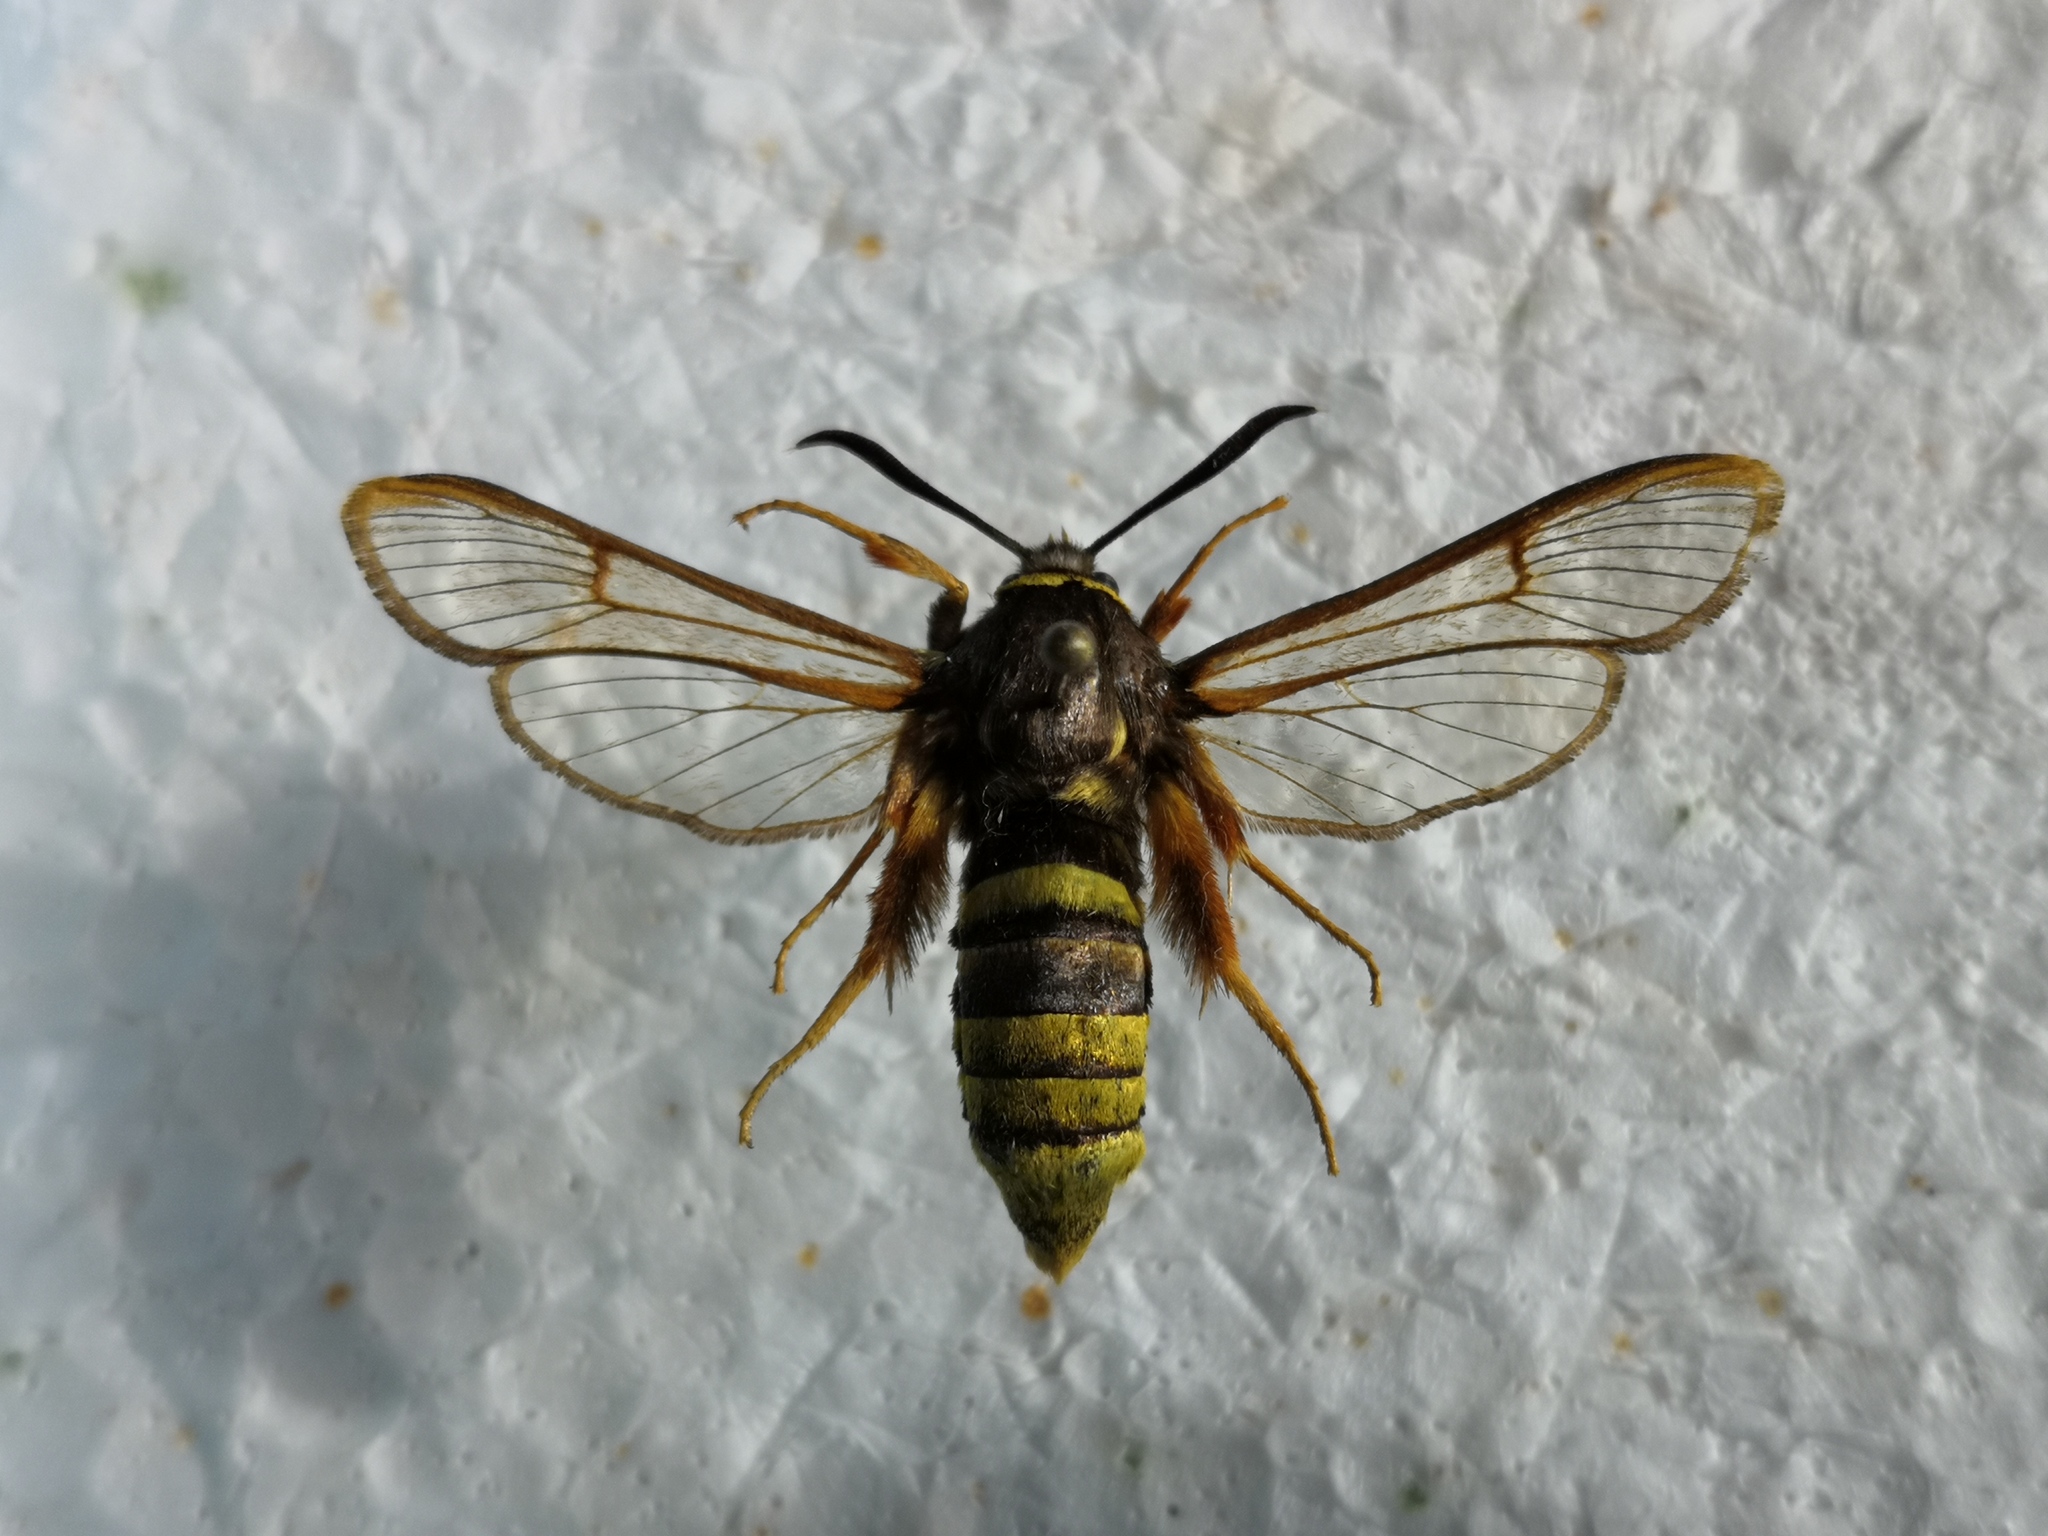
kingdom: Animalia
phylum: Arthropoda
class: Insecta
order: Lepidoptera
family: Sesiidae
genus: Sesia
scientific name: Sesia bembeciformis
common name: Lunar hornet moth
